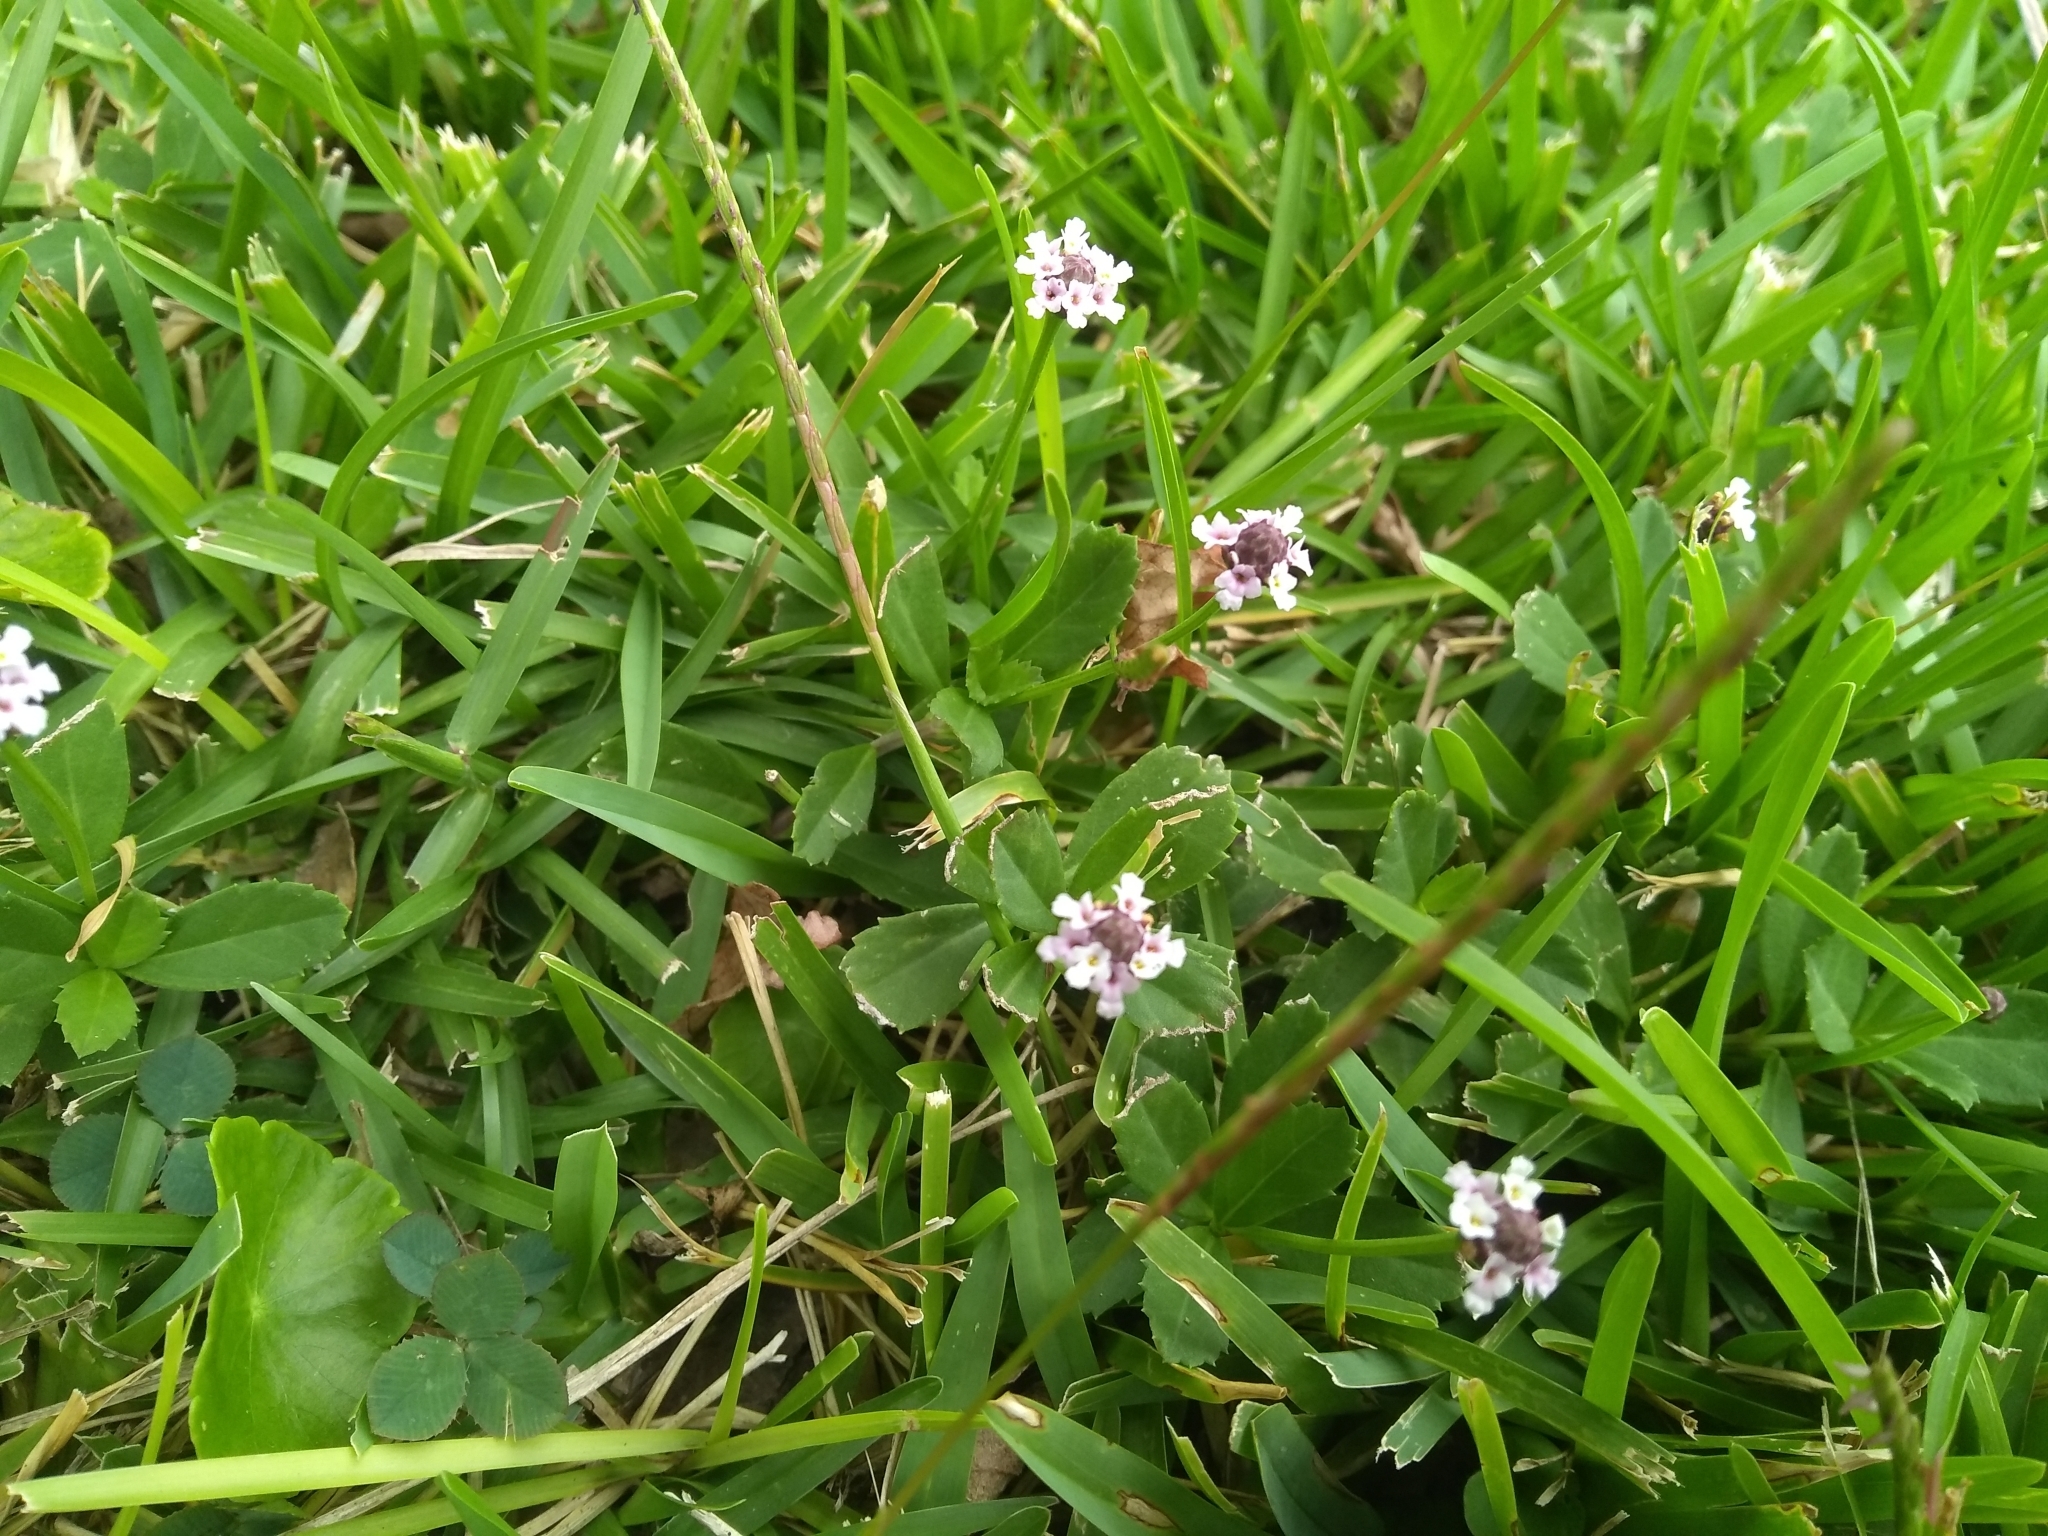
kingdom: Plantae
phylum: Tracheophyta
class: Magnoliopsida
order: Lamiales
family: Verbenaceae
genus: Phyla
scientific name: Phyla nodiflora
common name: Frogfruit
